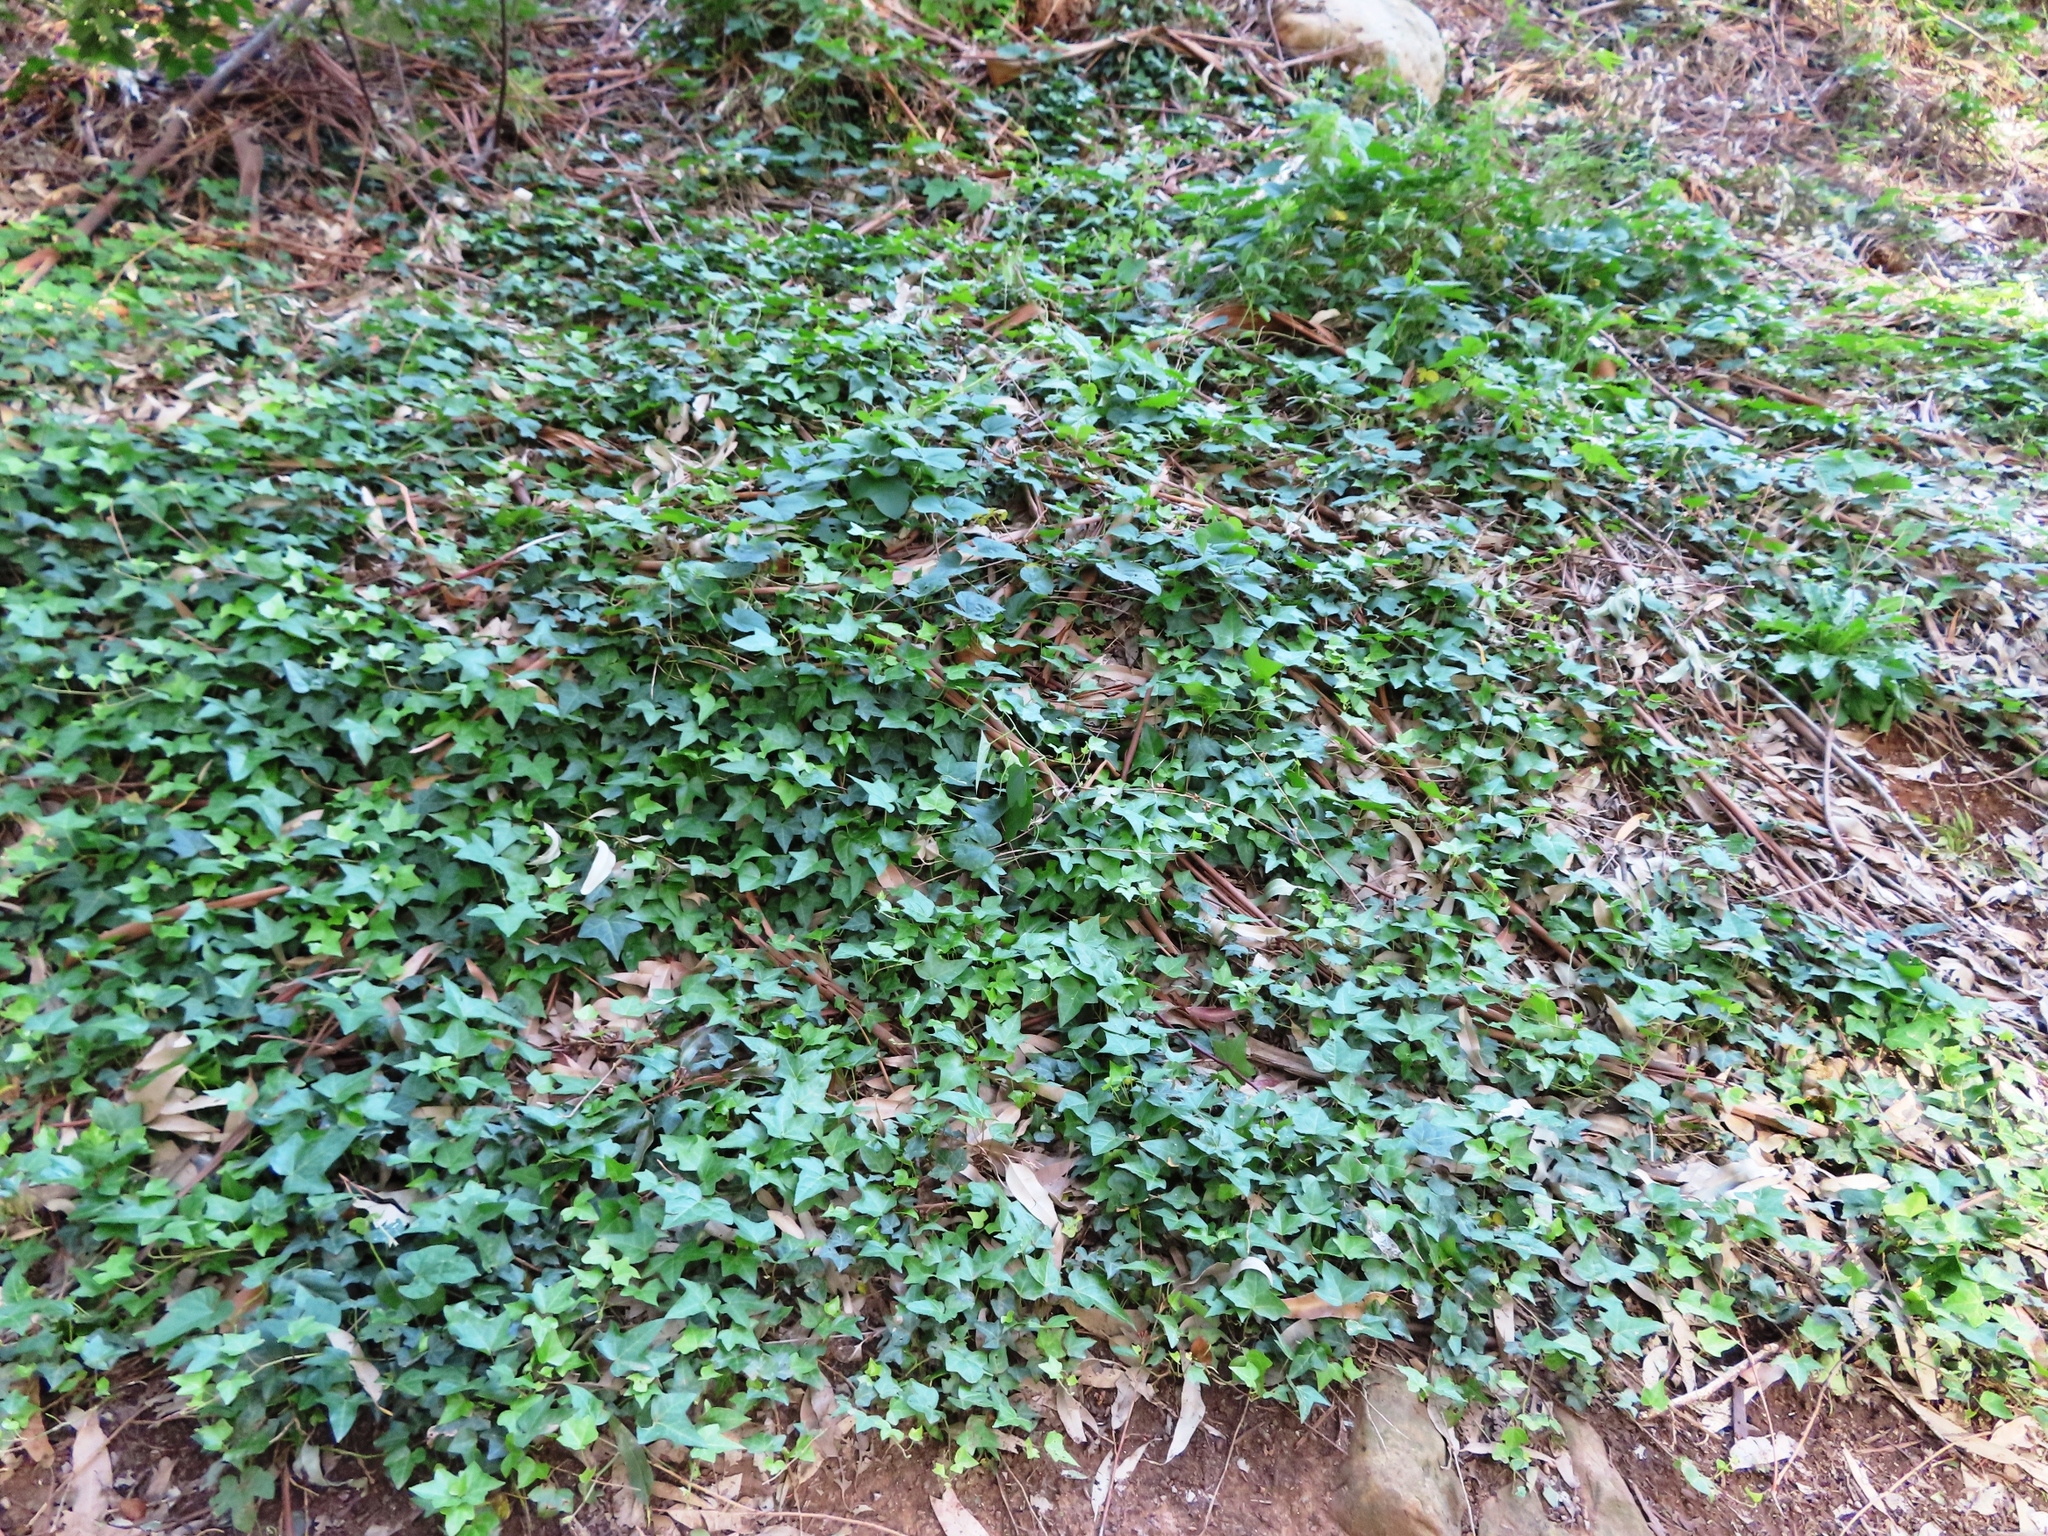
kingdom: Plantae
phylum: Tracheophyta
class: Magnoliopsida
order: Apiales
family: Araliaceae
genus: Hedera
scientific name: Hedera helix
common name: Ivy
